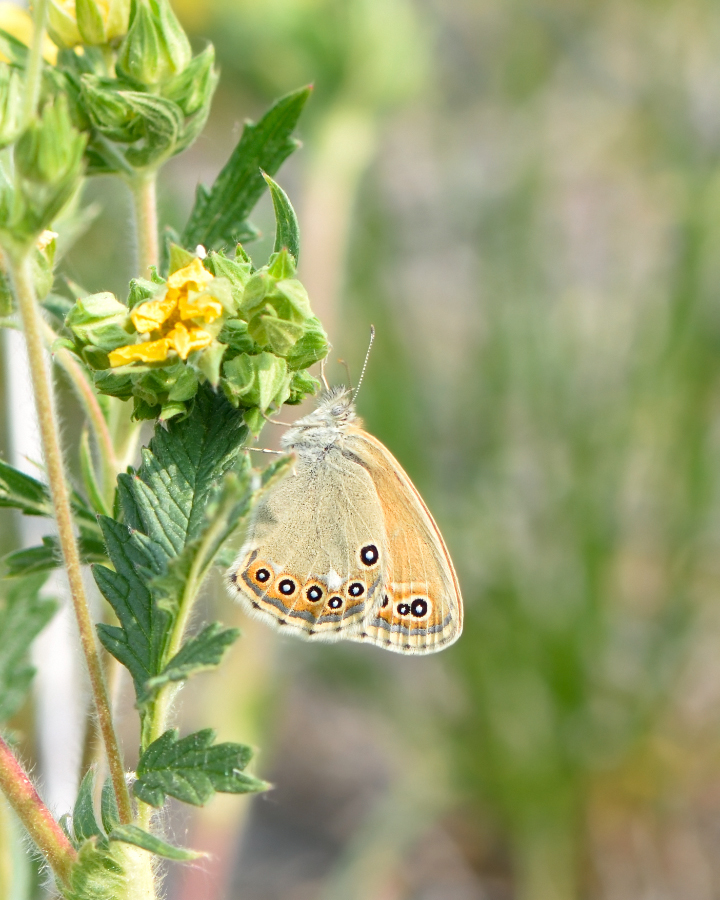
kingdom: Animalia
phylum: Arthropoda
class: Insecta
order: Lepidoptera
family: Nymphalidae
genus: Coenonympha
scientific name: Coenonympha amaryllis
